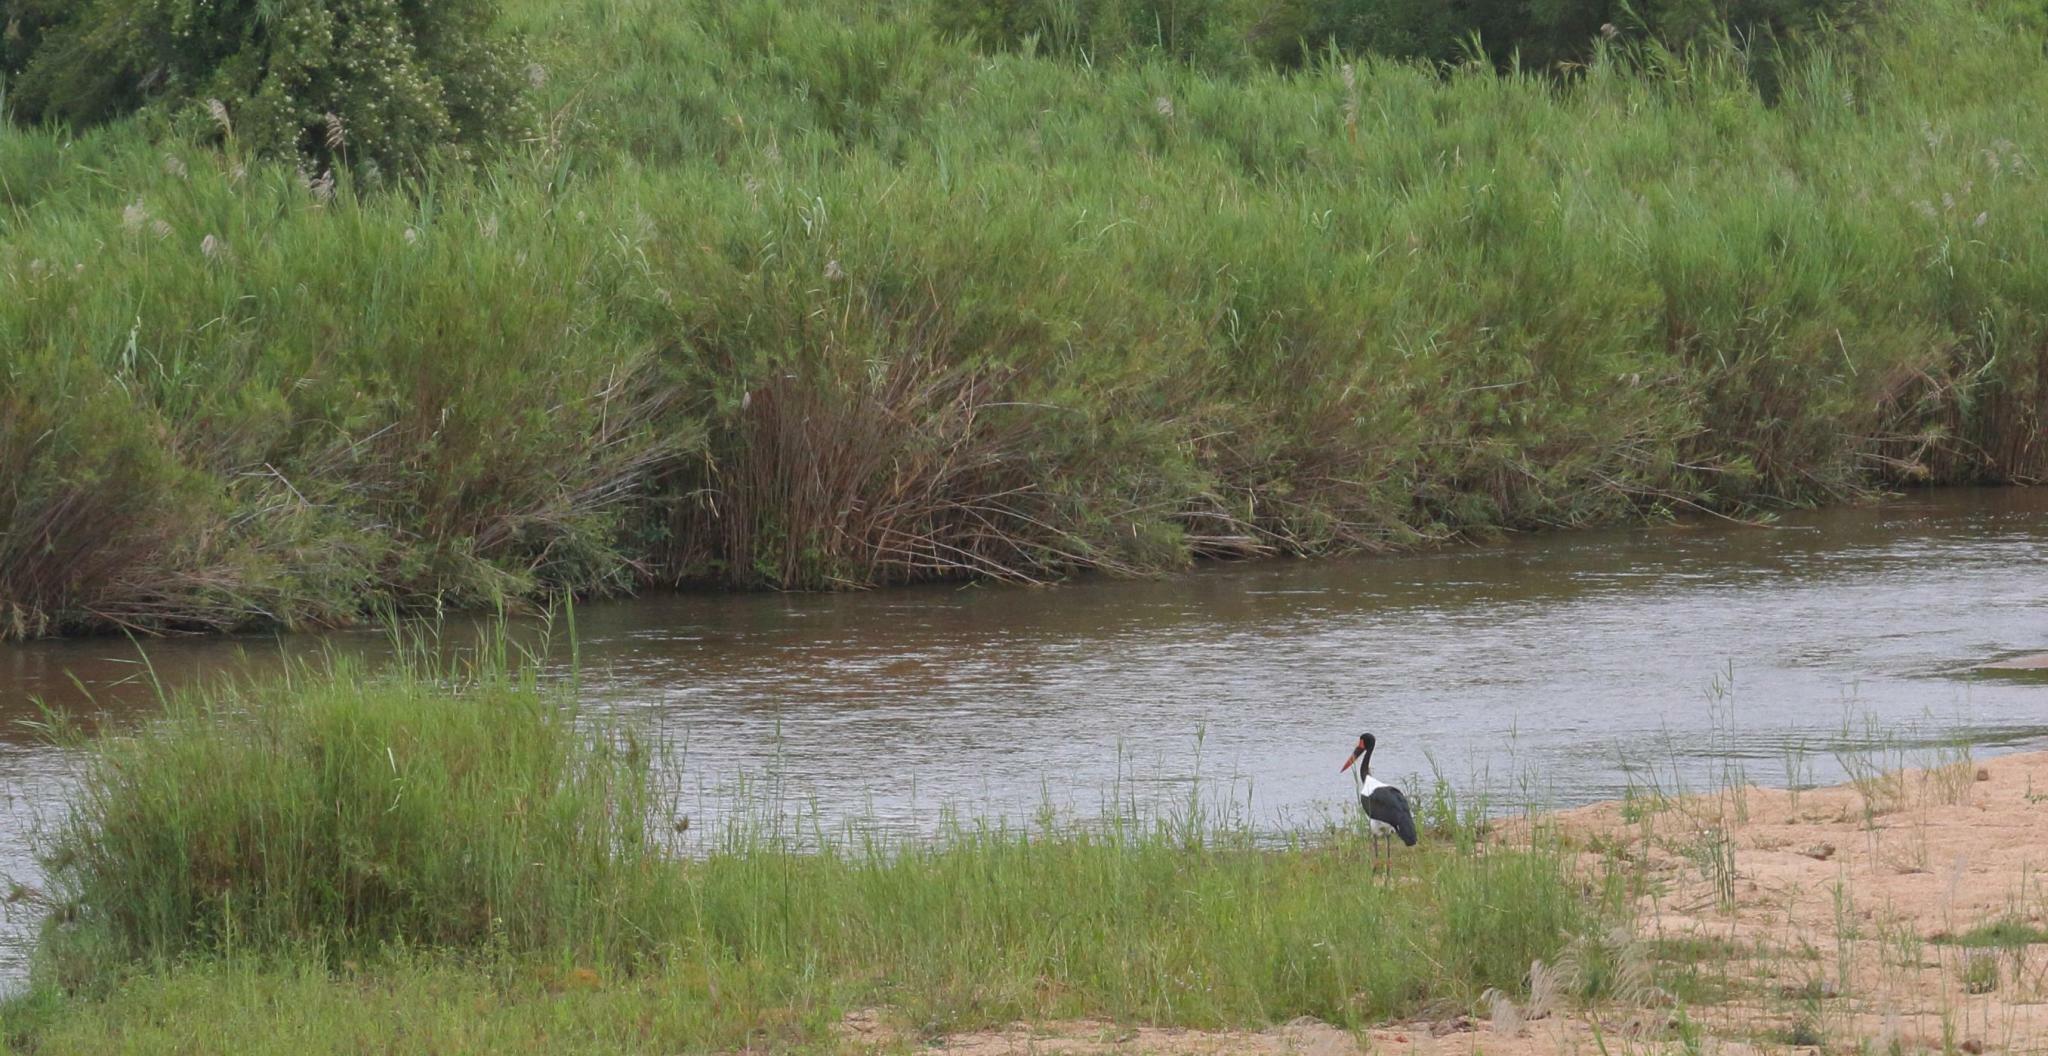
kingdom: Animalia
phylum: Chordata
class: Aves
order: Ciconiiformes
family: Ciconiidae
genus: Ephippiorhynchus
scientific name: Ephippiorhynchus senegalensis
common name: Saddle-billed stork
